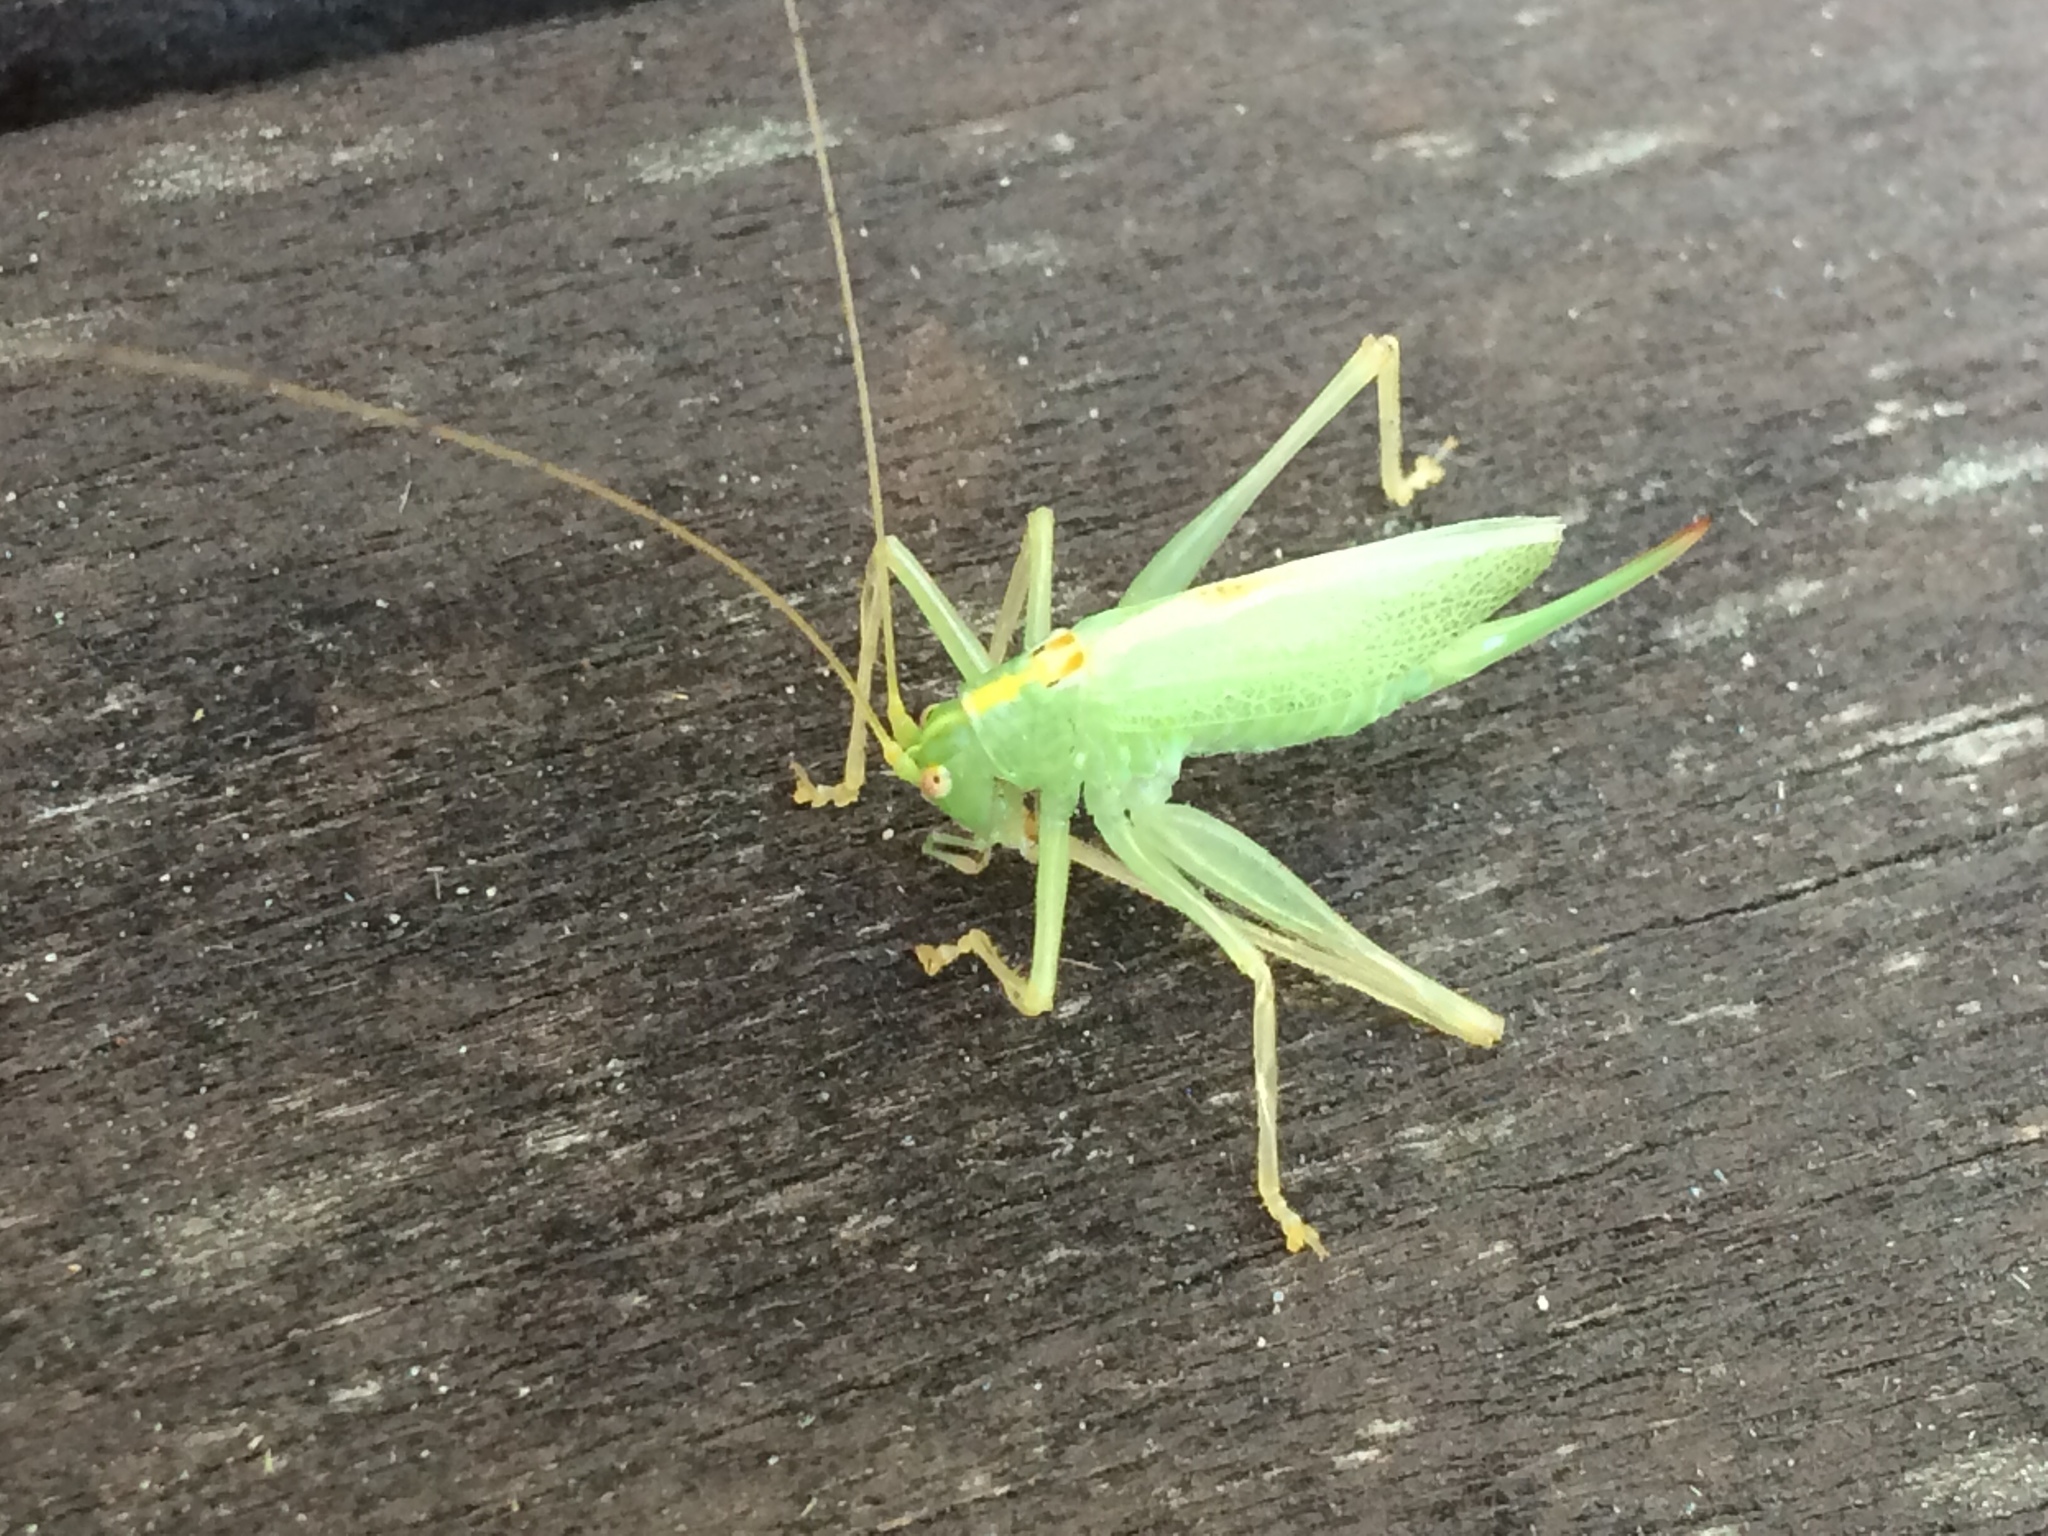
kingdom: Animalia
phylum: Arthropoda
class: Insecta
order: Orthoptera
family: Tettigoniidae
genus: Meconema
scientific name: Meconema thalassinum
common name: Oak bush-cricket
